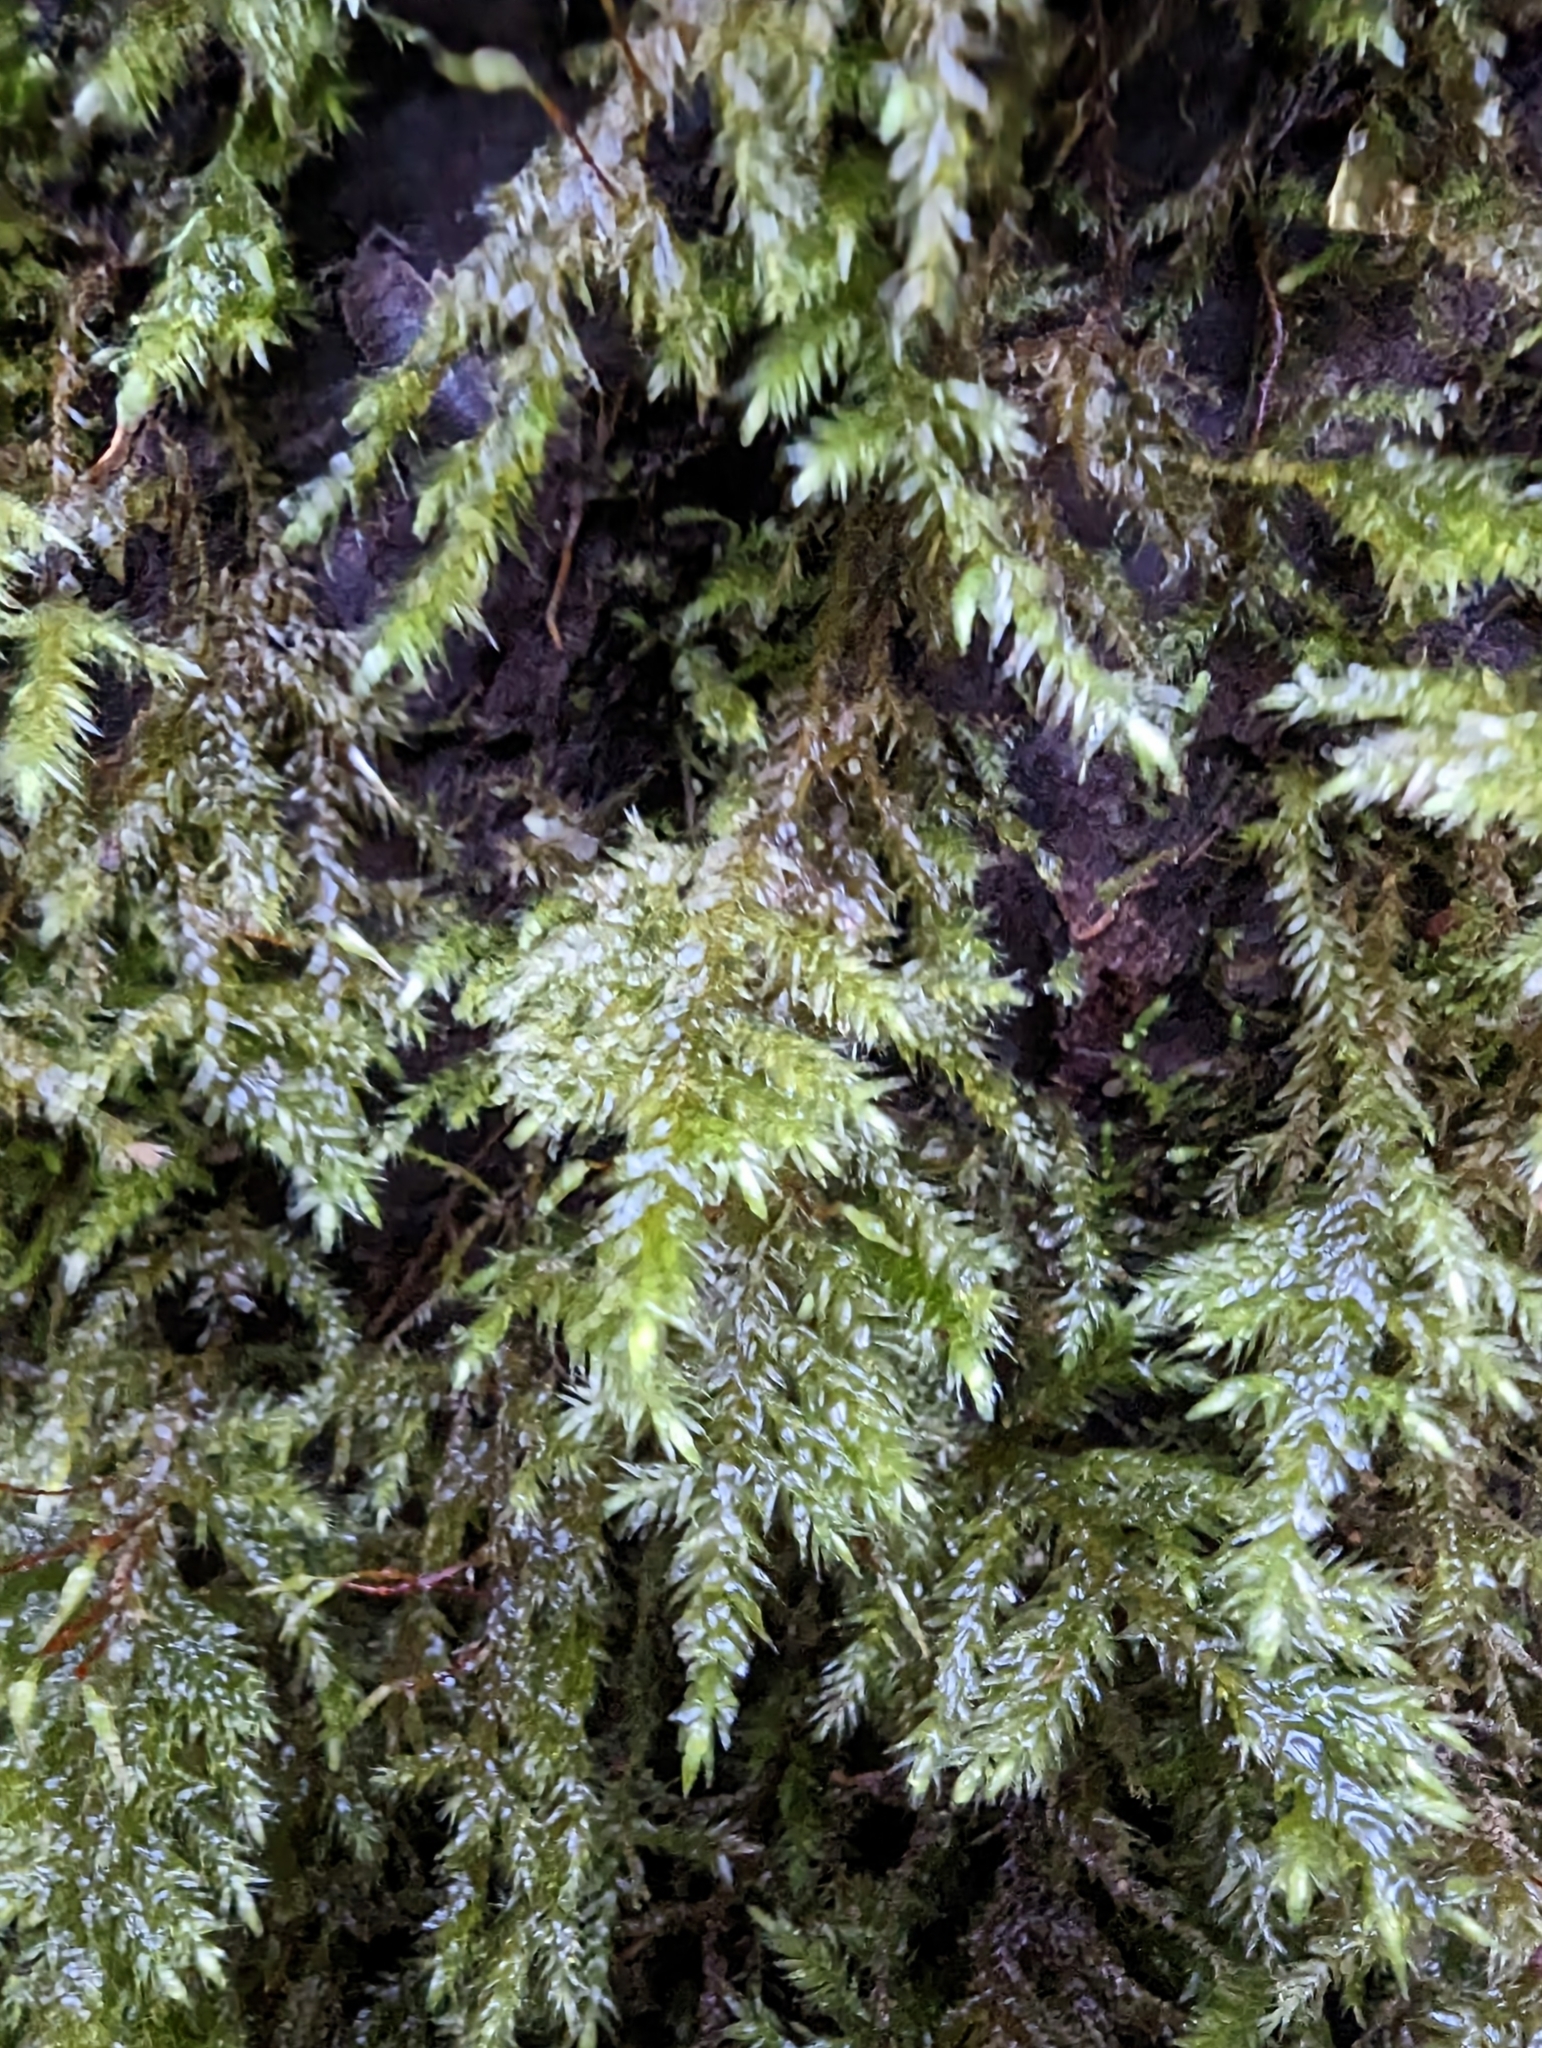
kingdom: Plantae
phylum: Bryophyta
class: Bryopsida
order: Hypnales
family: Lembophyllaceae
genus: Pseudisothecium
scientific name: Pseudisothecium stoloniferum
